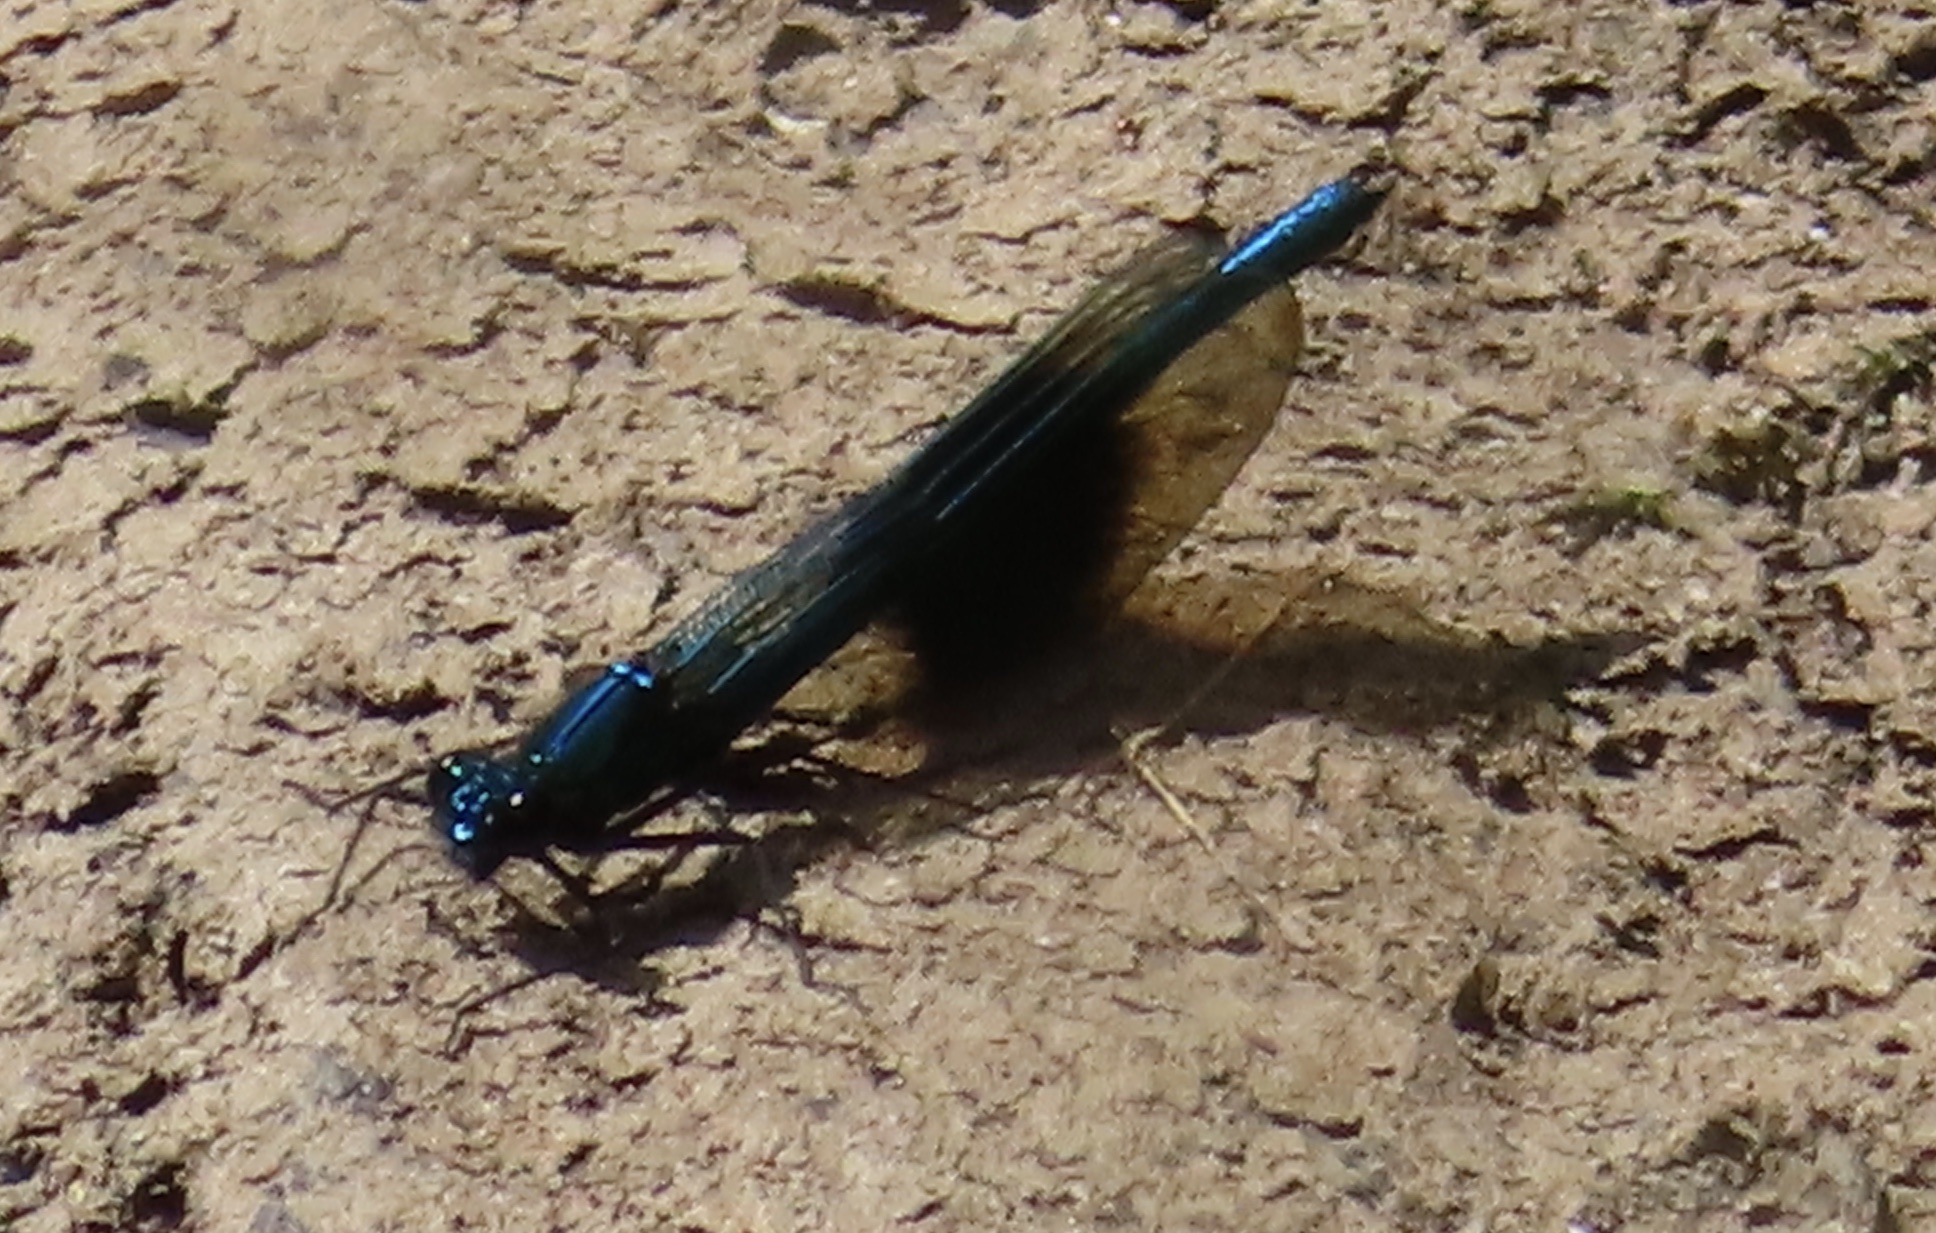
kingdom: Animalia
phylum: Arthropoda
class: Insecta
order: Odonata
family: Calopterygidae
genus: Calopteryx
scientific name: Calopteryx splendens
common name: Banded demoiselle
